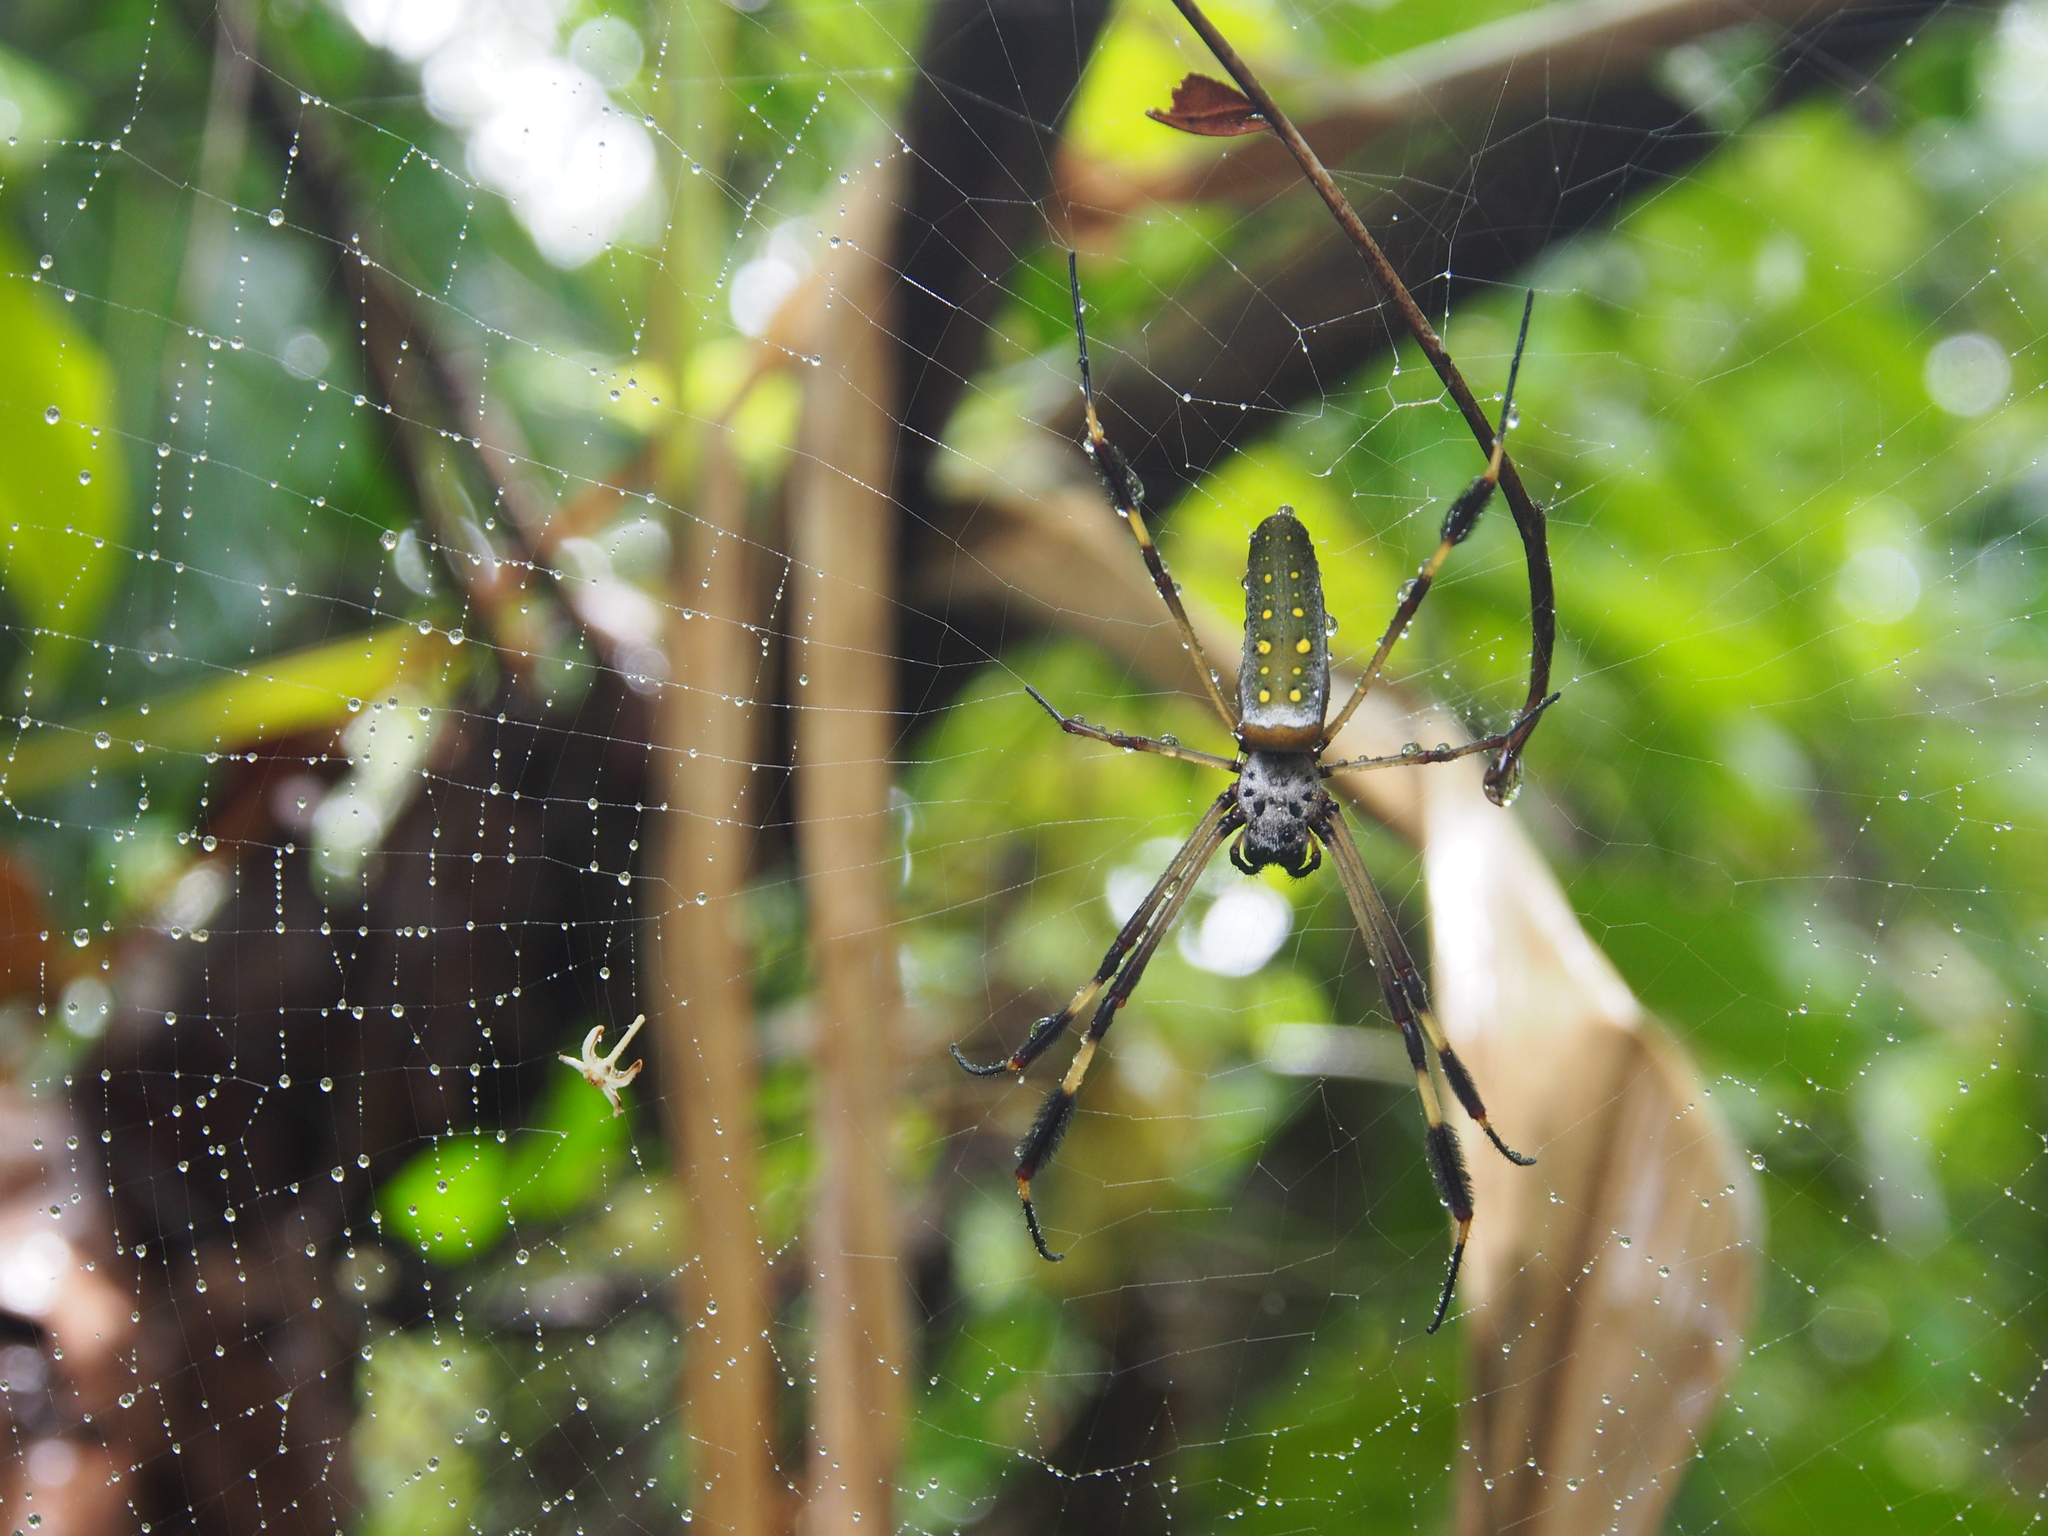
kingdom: Animalia
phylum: Arthropoda
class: Arachnida
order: Araneae
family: Araneidae
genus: Trichonephila
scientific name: Trichonephila clavipes
